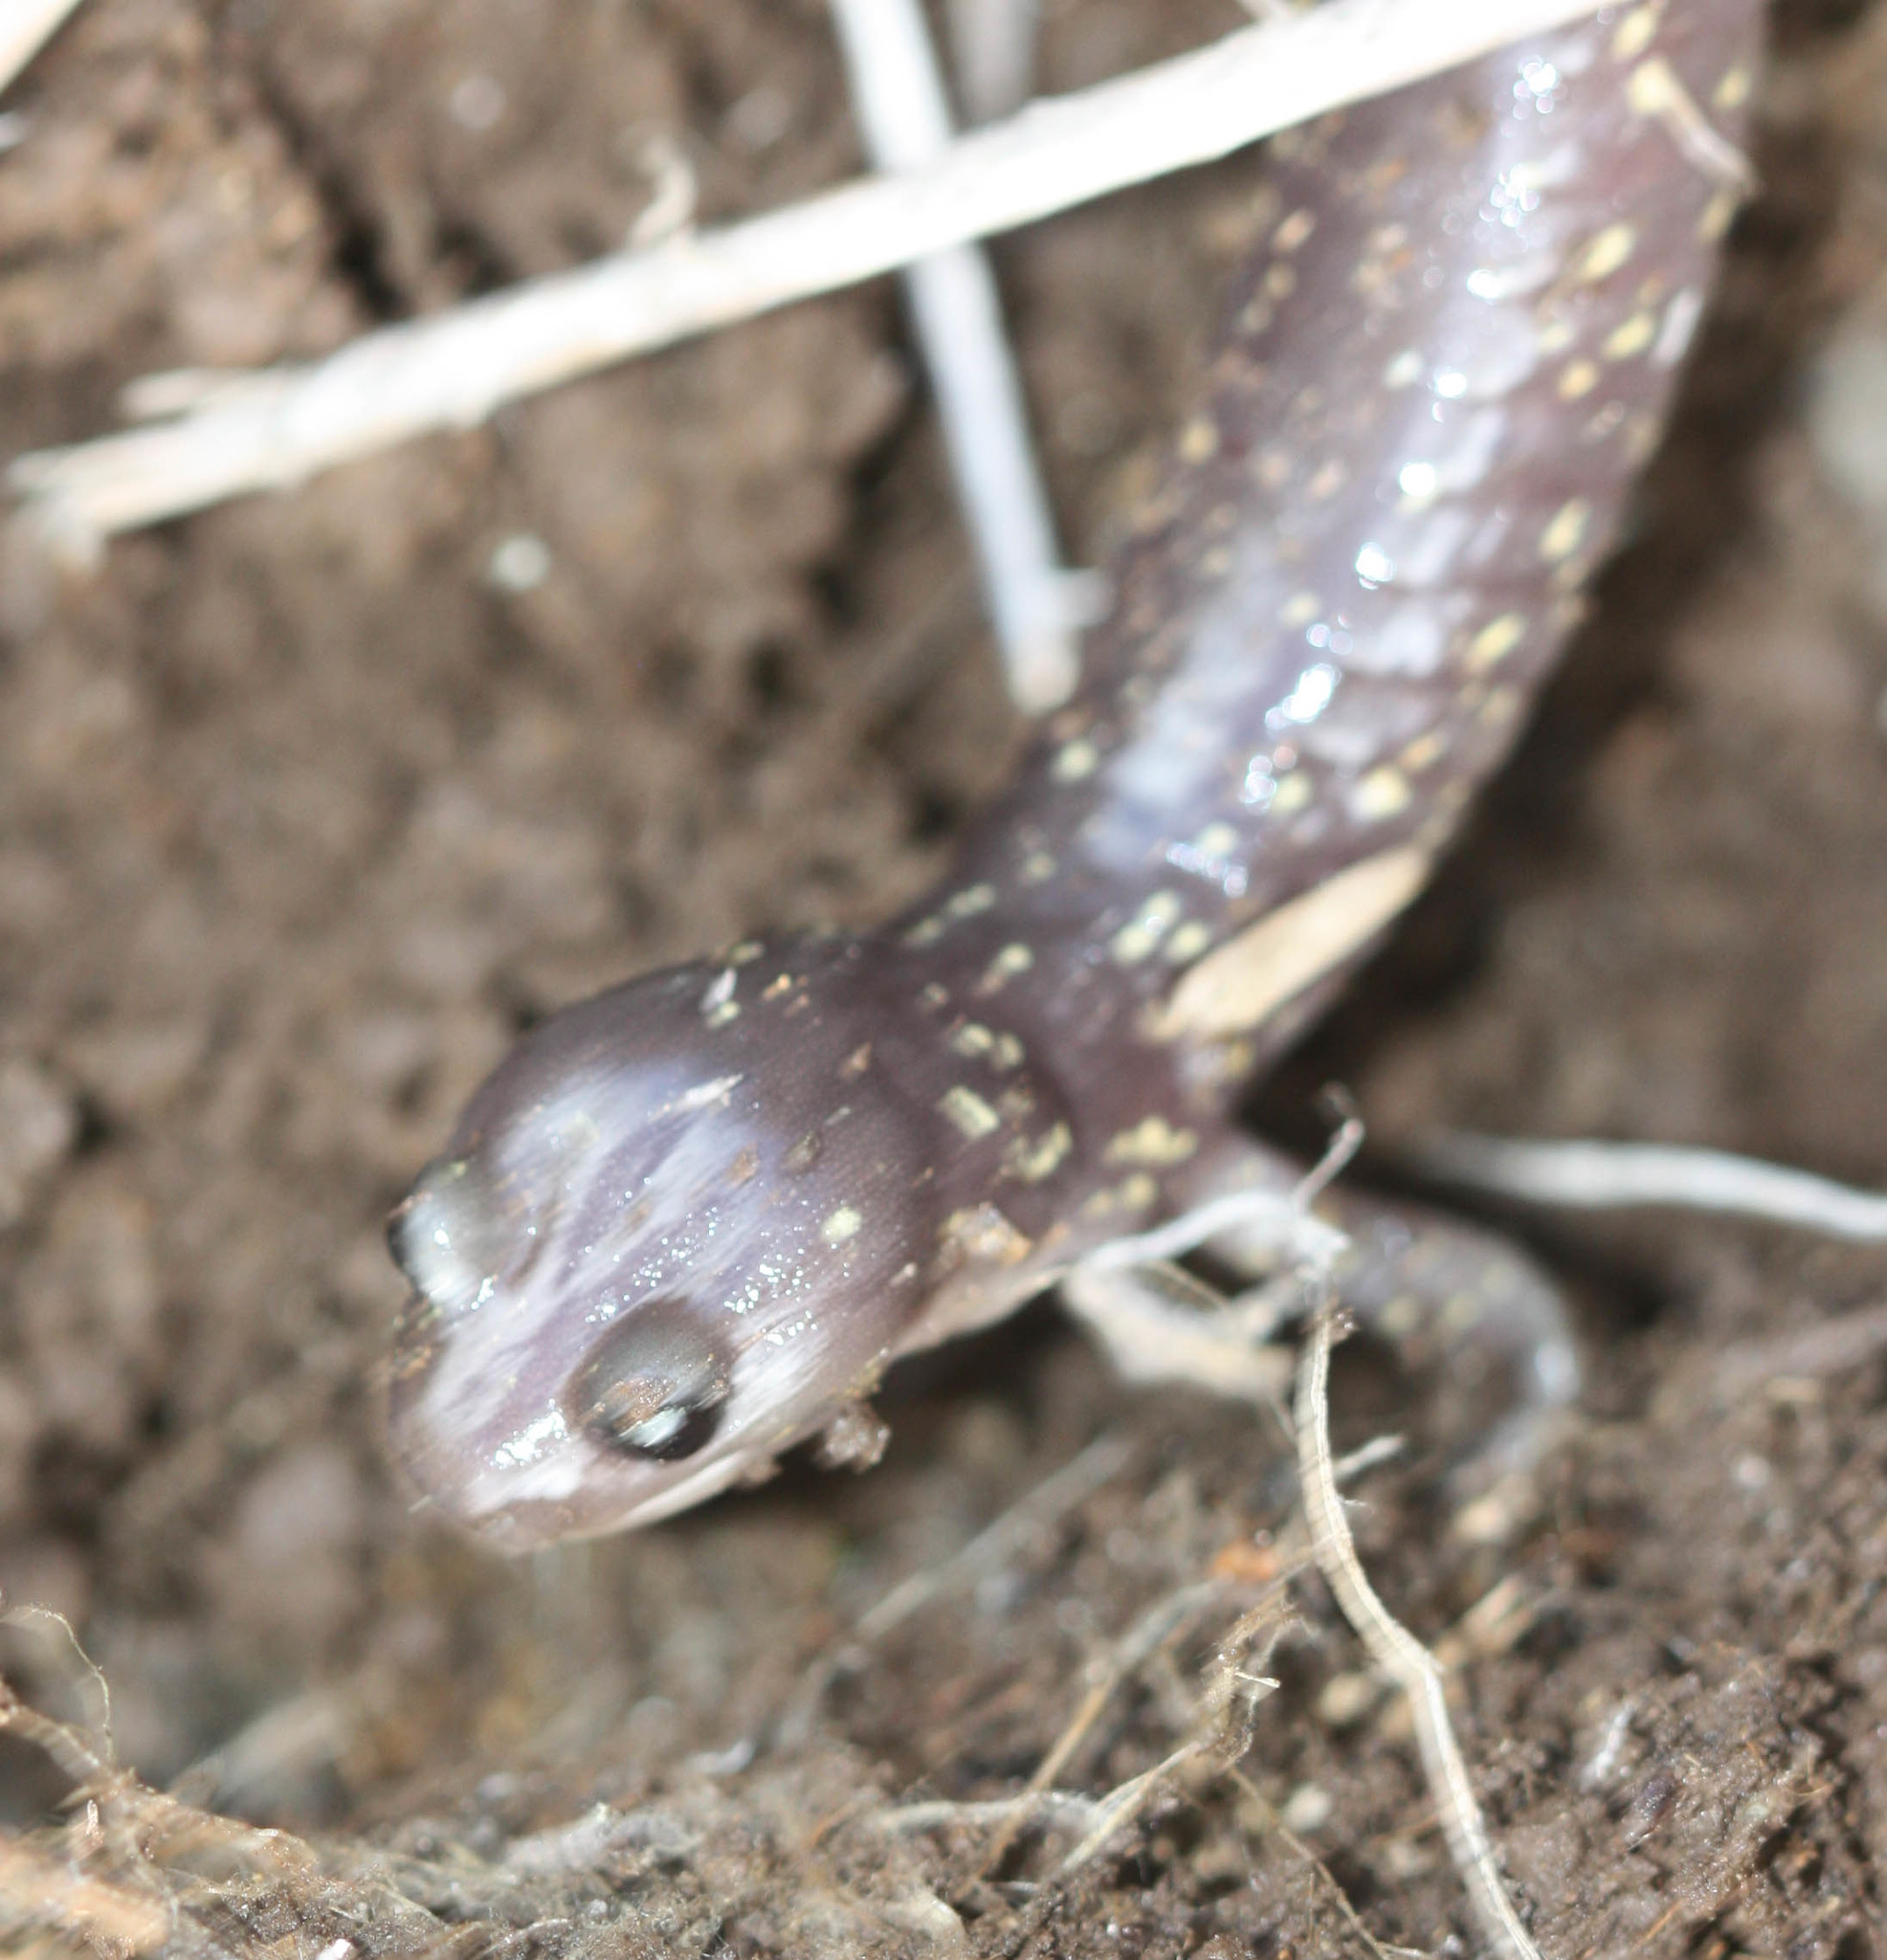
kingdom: Animalia
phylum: Chordata
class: Amphibia
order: Caudata
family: Plethodontidae
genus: Aneides
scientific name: Aneides lugubris
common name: Arboreal salamander
